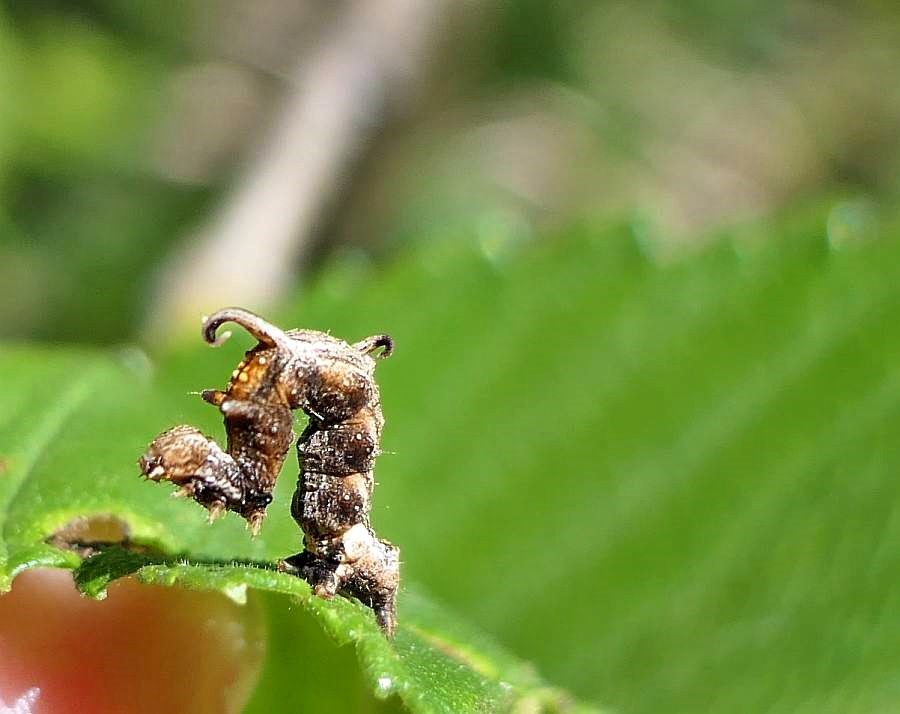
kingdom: Animalia
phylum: Arthropoda
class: Insecta
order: Lepidoptera
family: Geometridae
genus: Nematocampa
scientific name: Nematocampa resistaria
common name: Horned spanworm moth
